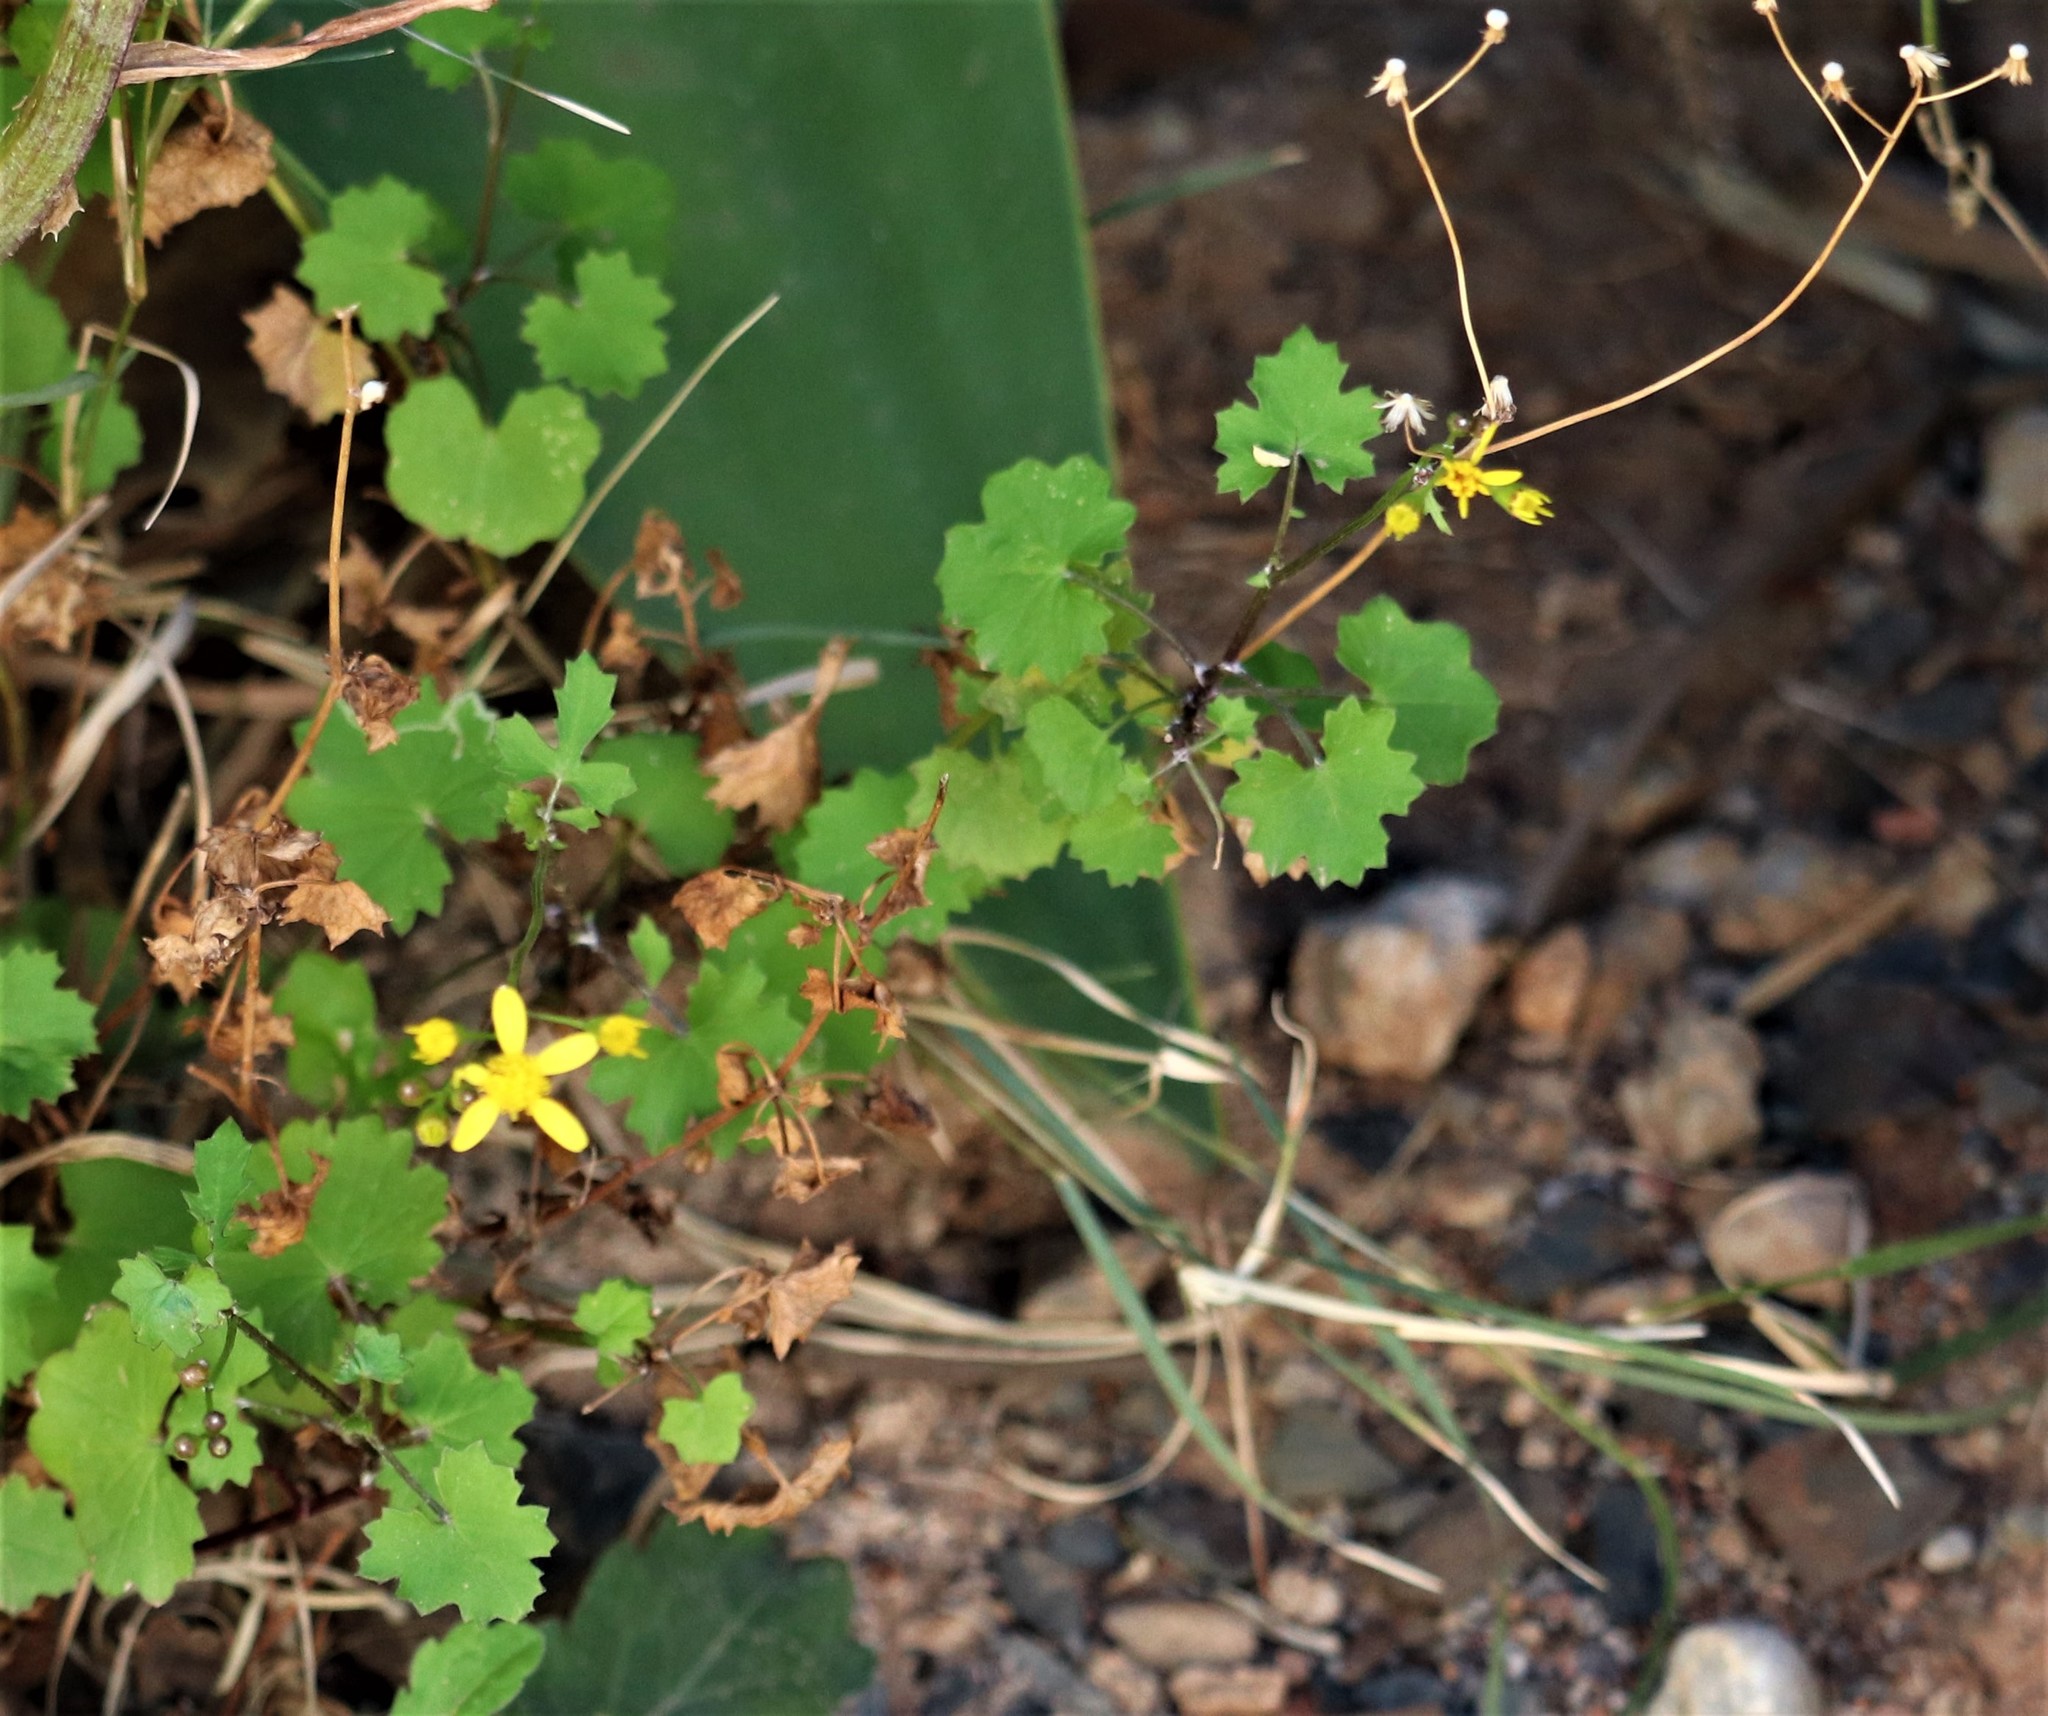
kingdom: Plantae
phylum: Tracheophyta
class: Magnoliopsida
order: Asterales
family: Asteraceae
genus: Cineraria
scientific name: Cineraria lobata
